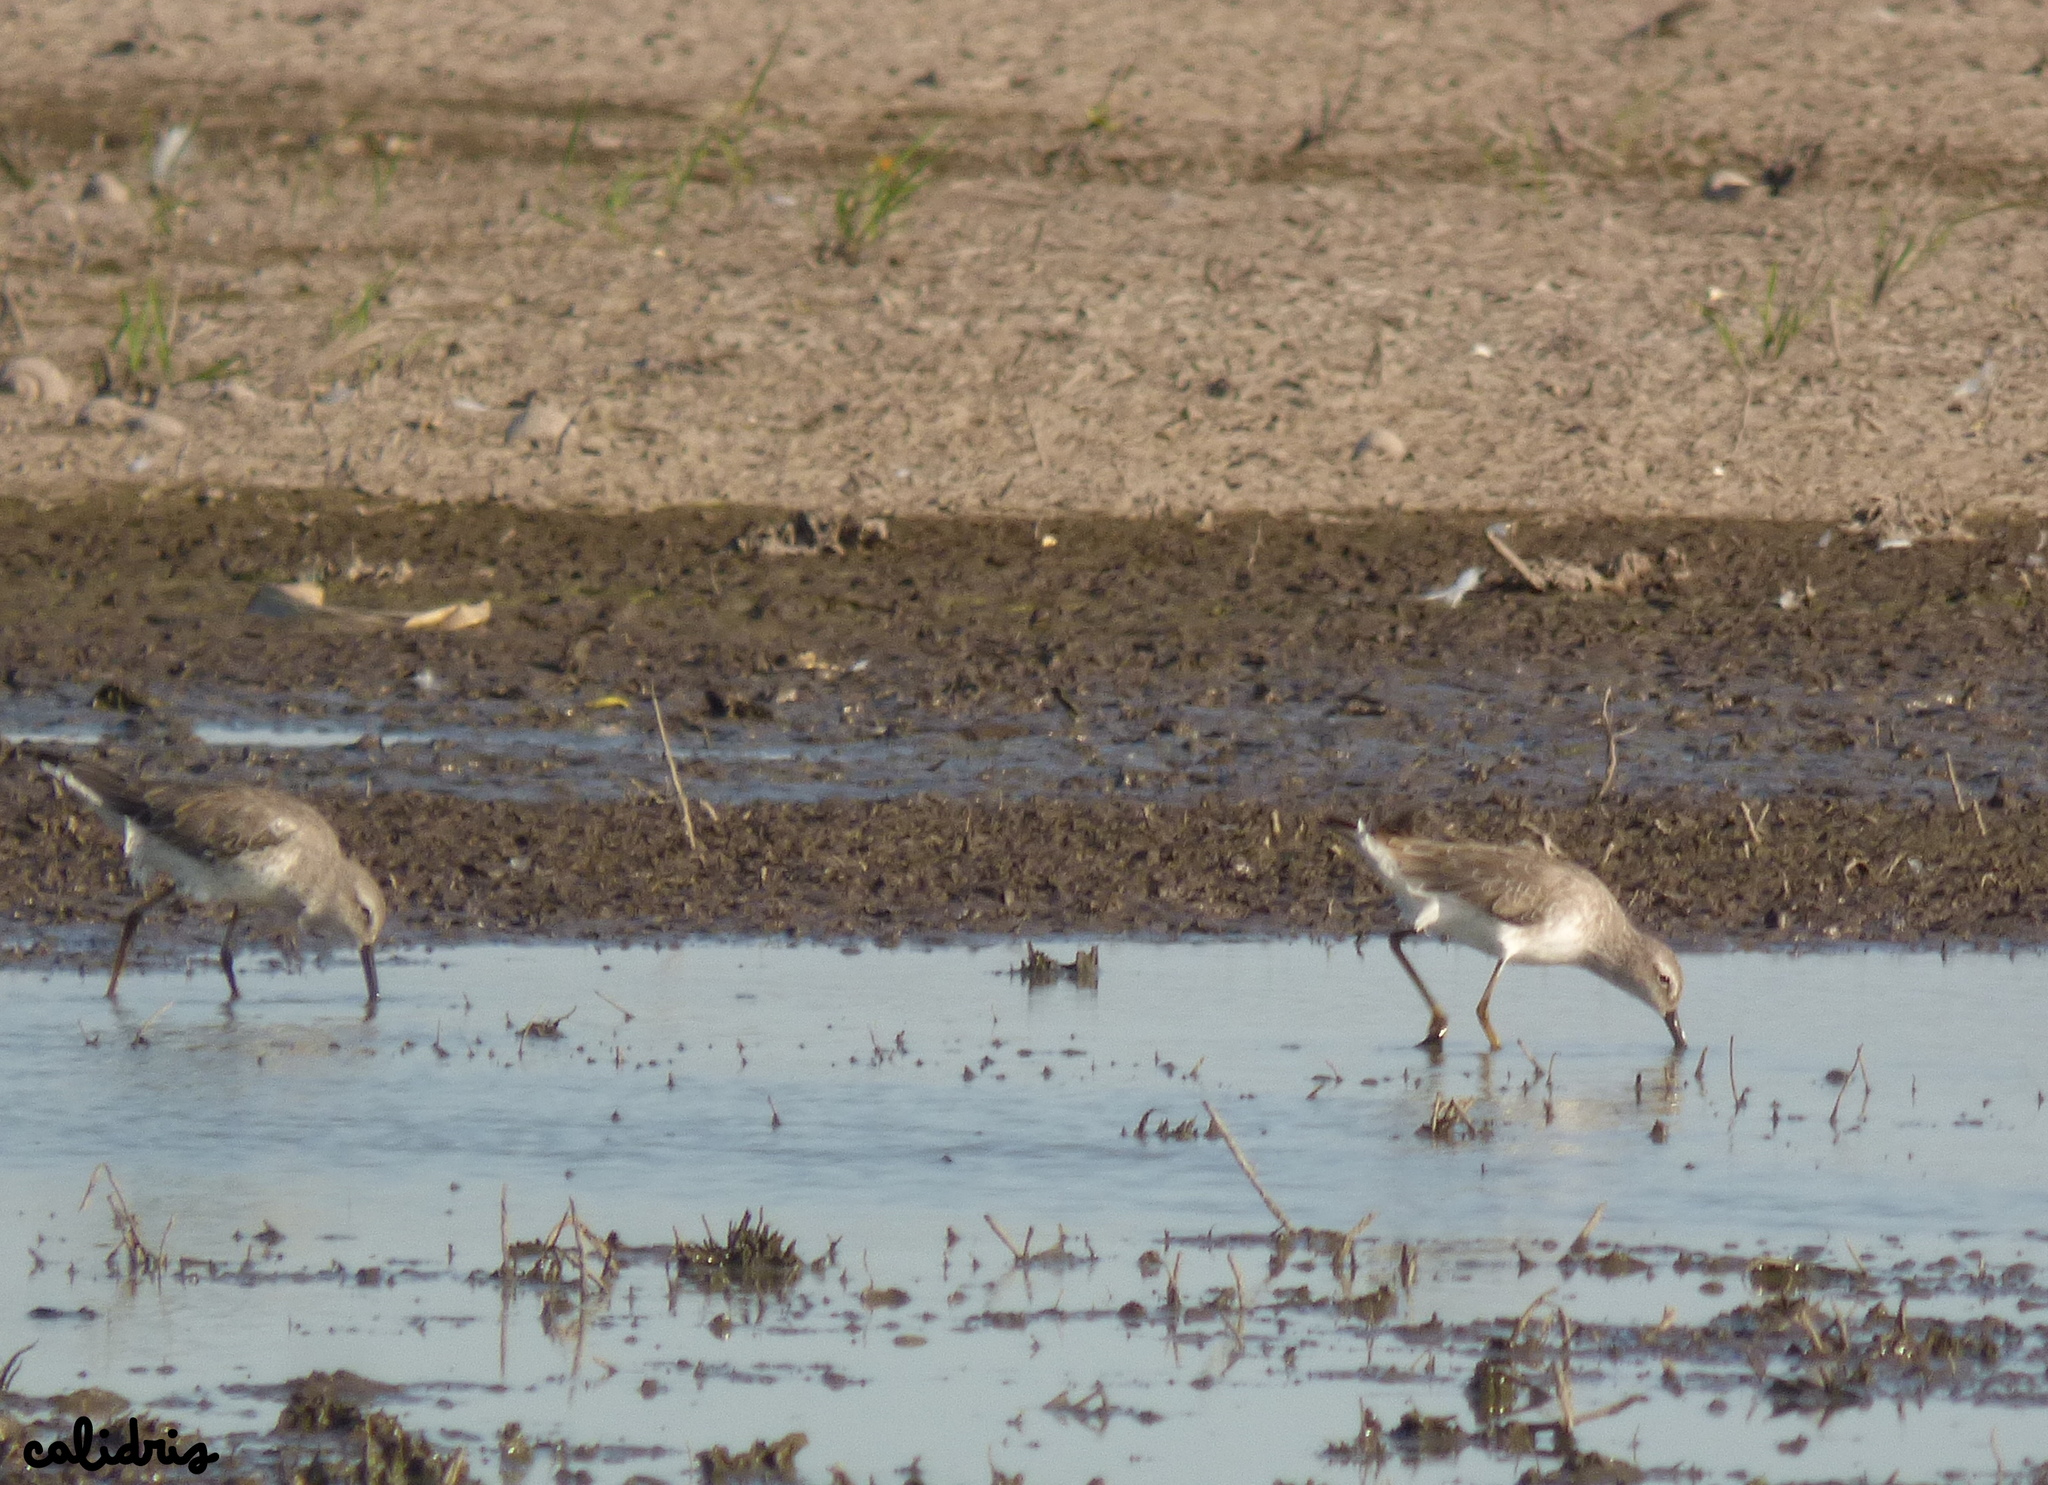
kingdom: Animalia
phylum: Chordata
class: Aves
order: Charadriiformes
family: Scolopacidae
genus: Calidris
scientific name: Calidris himantopus
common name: Stilt sandpiper
